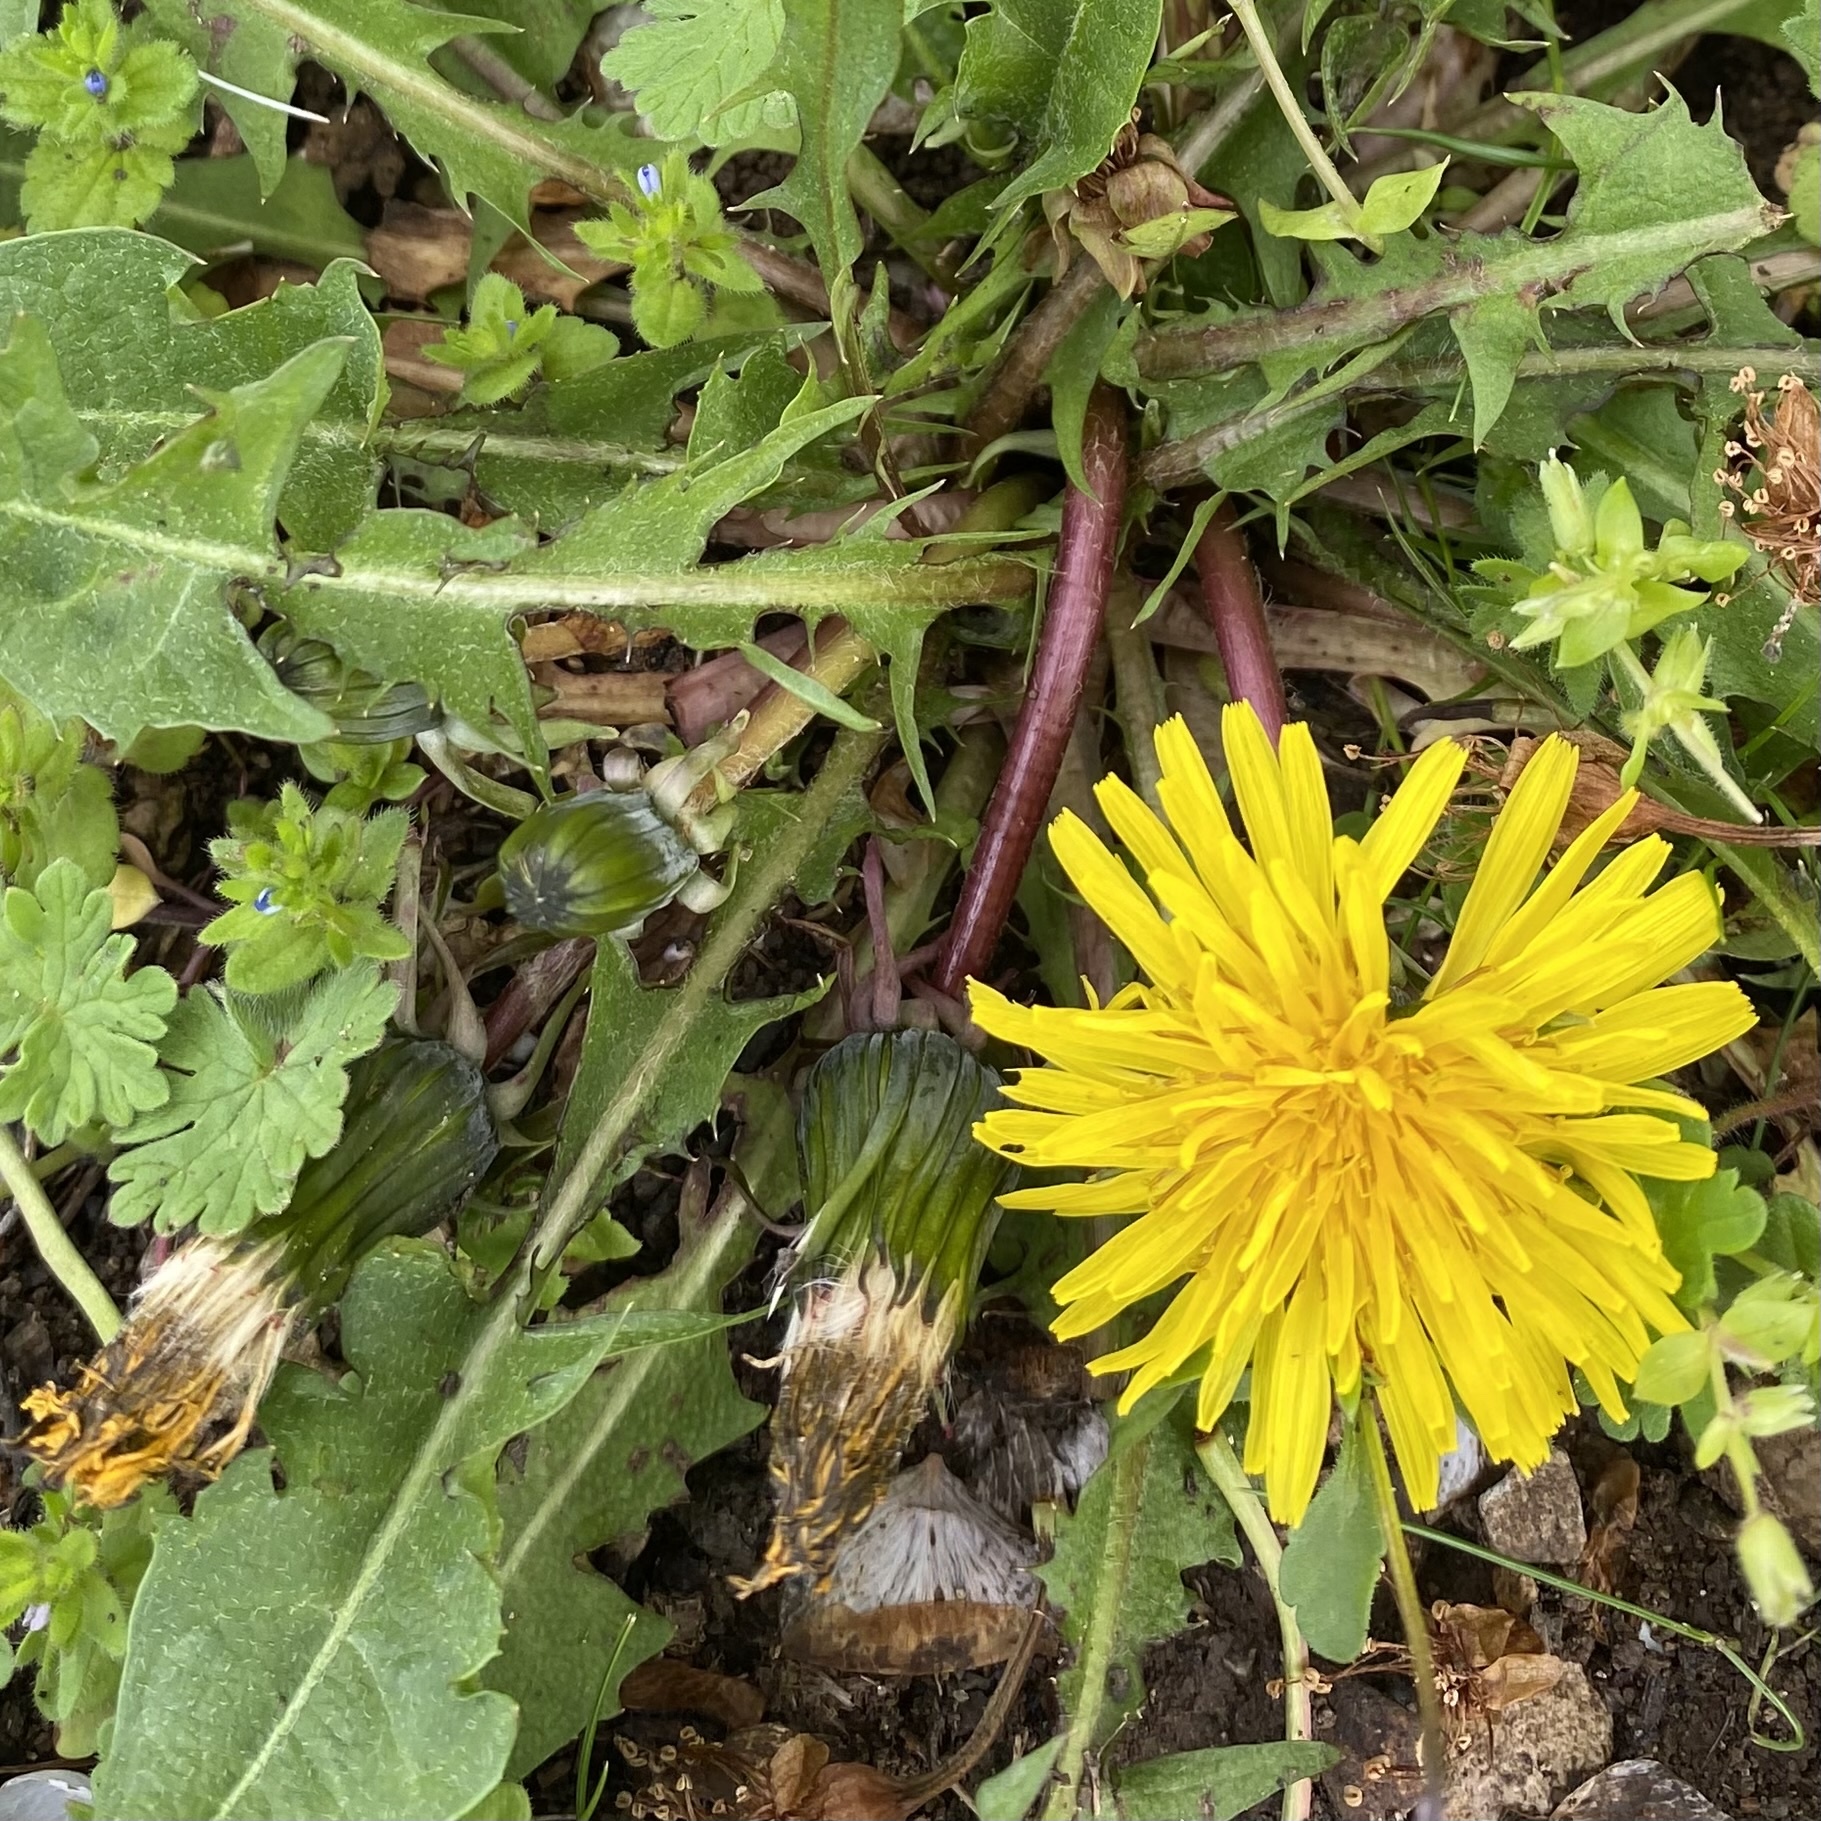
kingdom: Plantae
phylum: Tracheophyta
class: Magnoliopsida
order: Asterales
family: Asteraceae
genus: Taraxacum
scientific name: Taraxacum officinale
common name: Common dandelion
